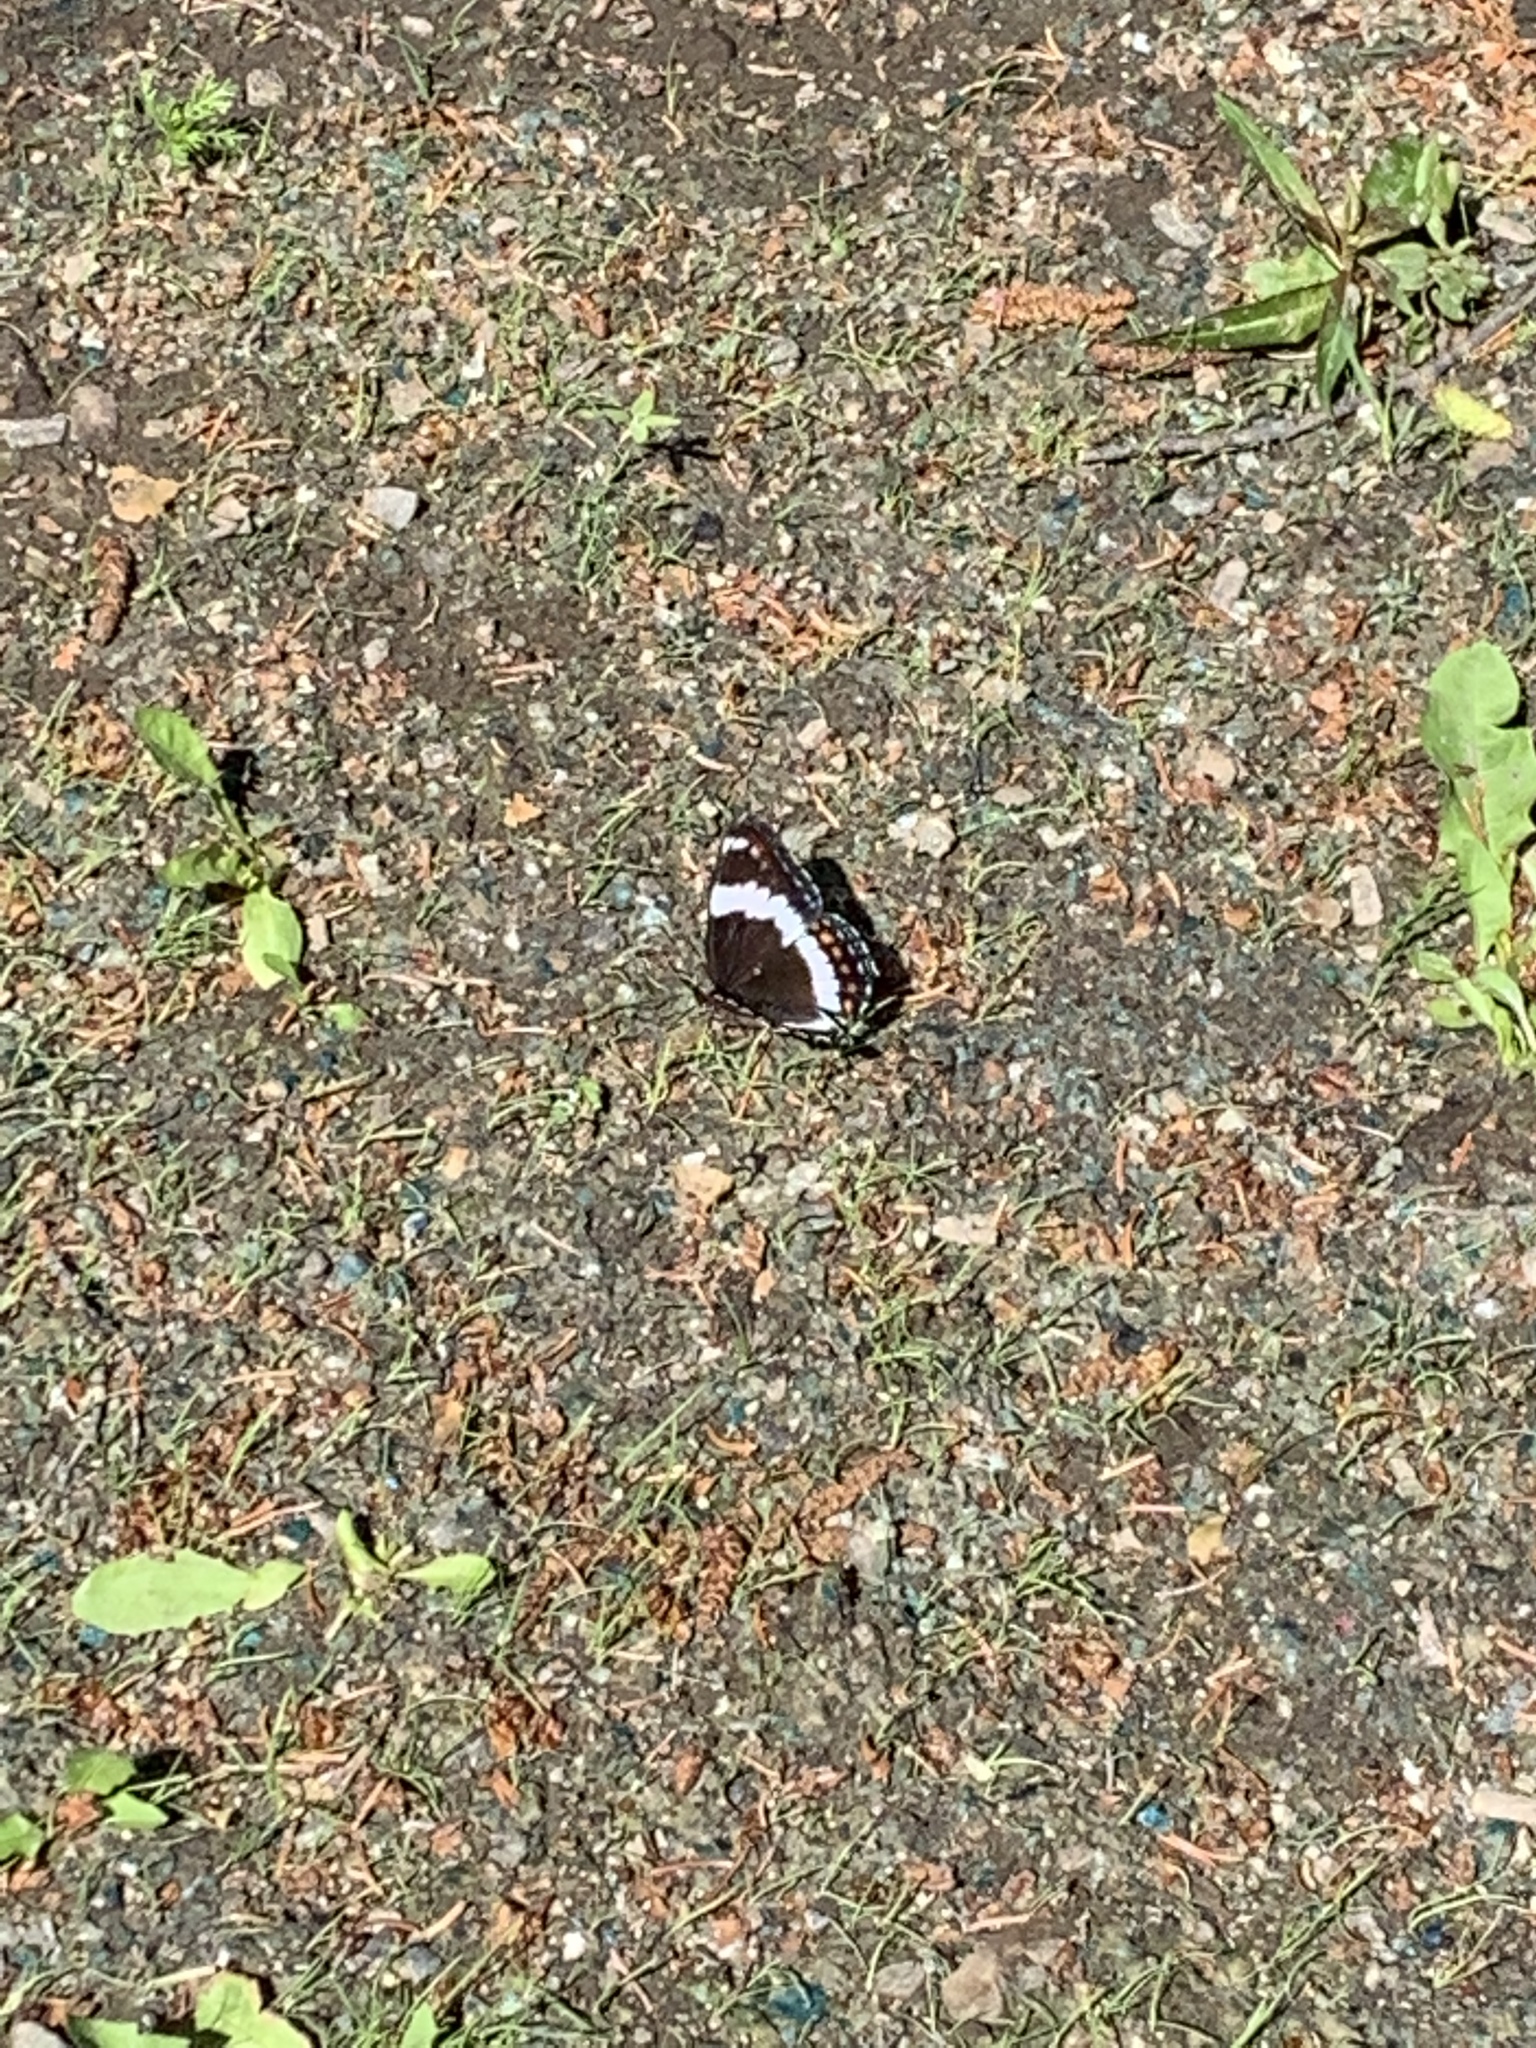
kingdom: Animalia
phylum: Arthropoda
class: Insecta
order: Lepidoptera
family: Nymphalidae
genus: Limenitis
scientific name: Limenitis arthemis
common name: Red-spotted admiral
